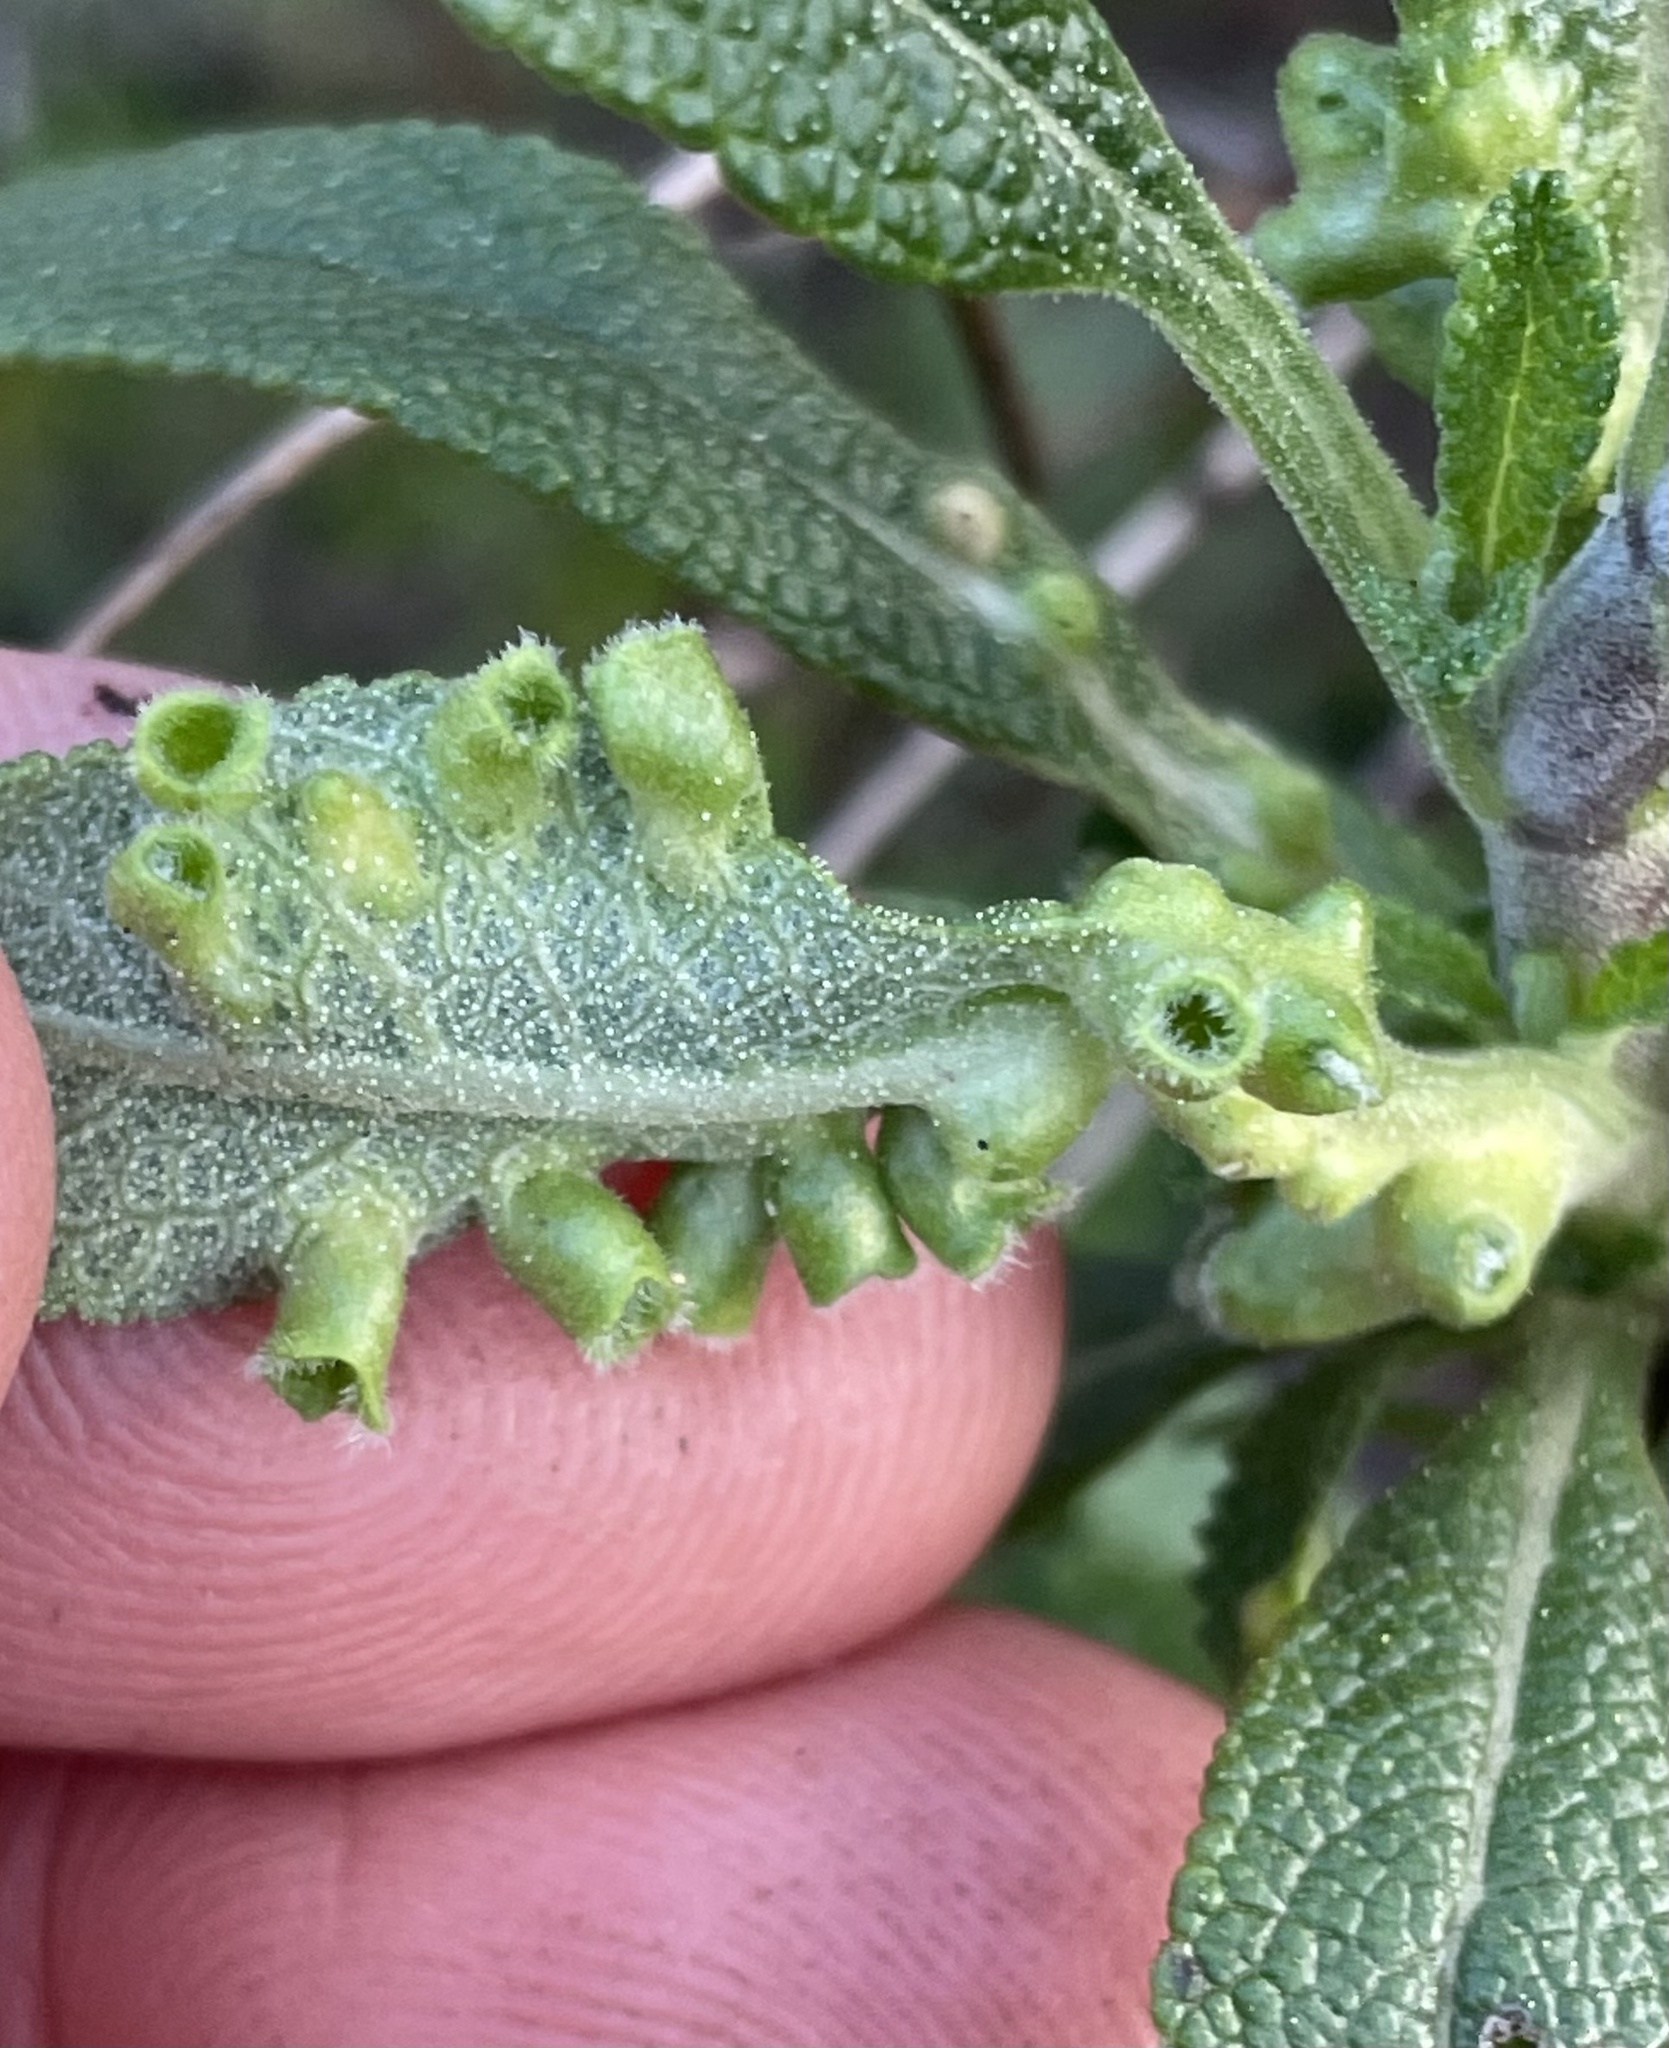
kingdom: Animalia
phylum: Arthropoda
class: Insecta
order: Diptera
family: Cecidomyiidae
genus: Rhopalomyia
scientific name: Rhopalomyia audibertiae
